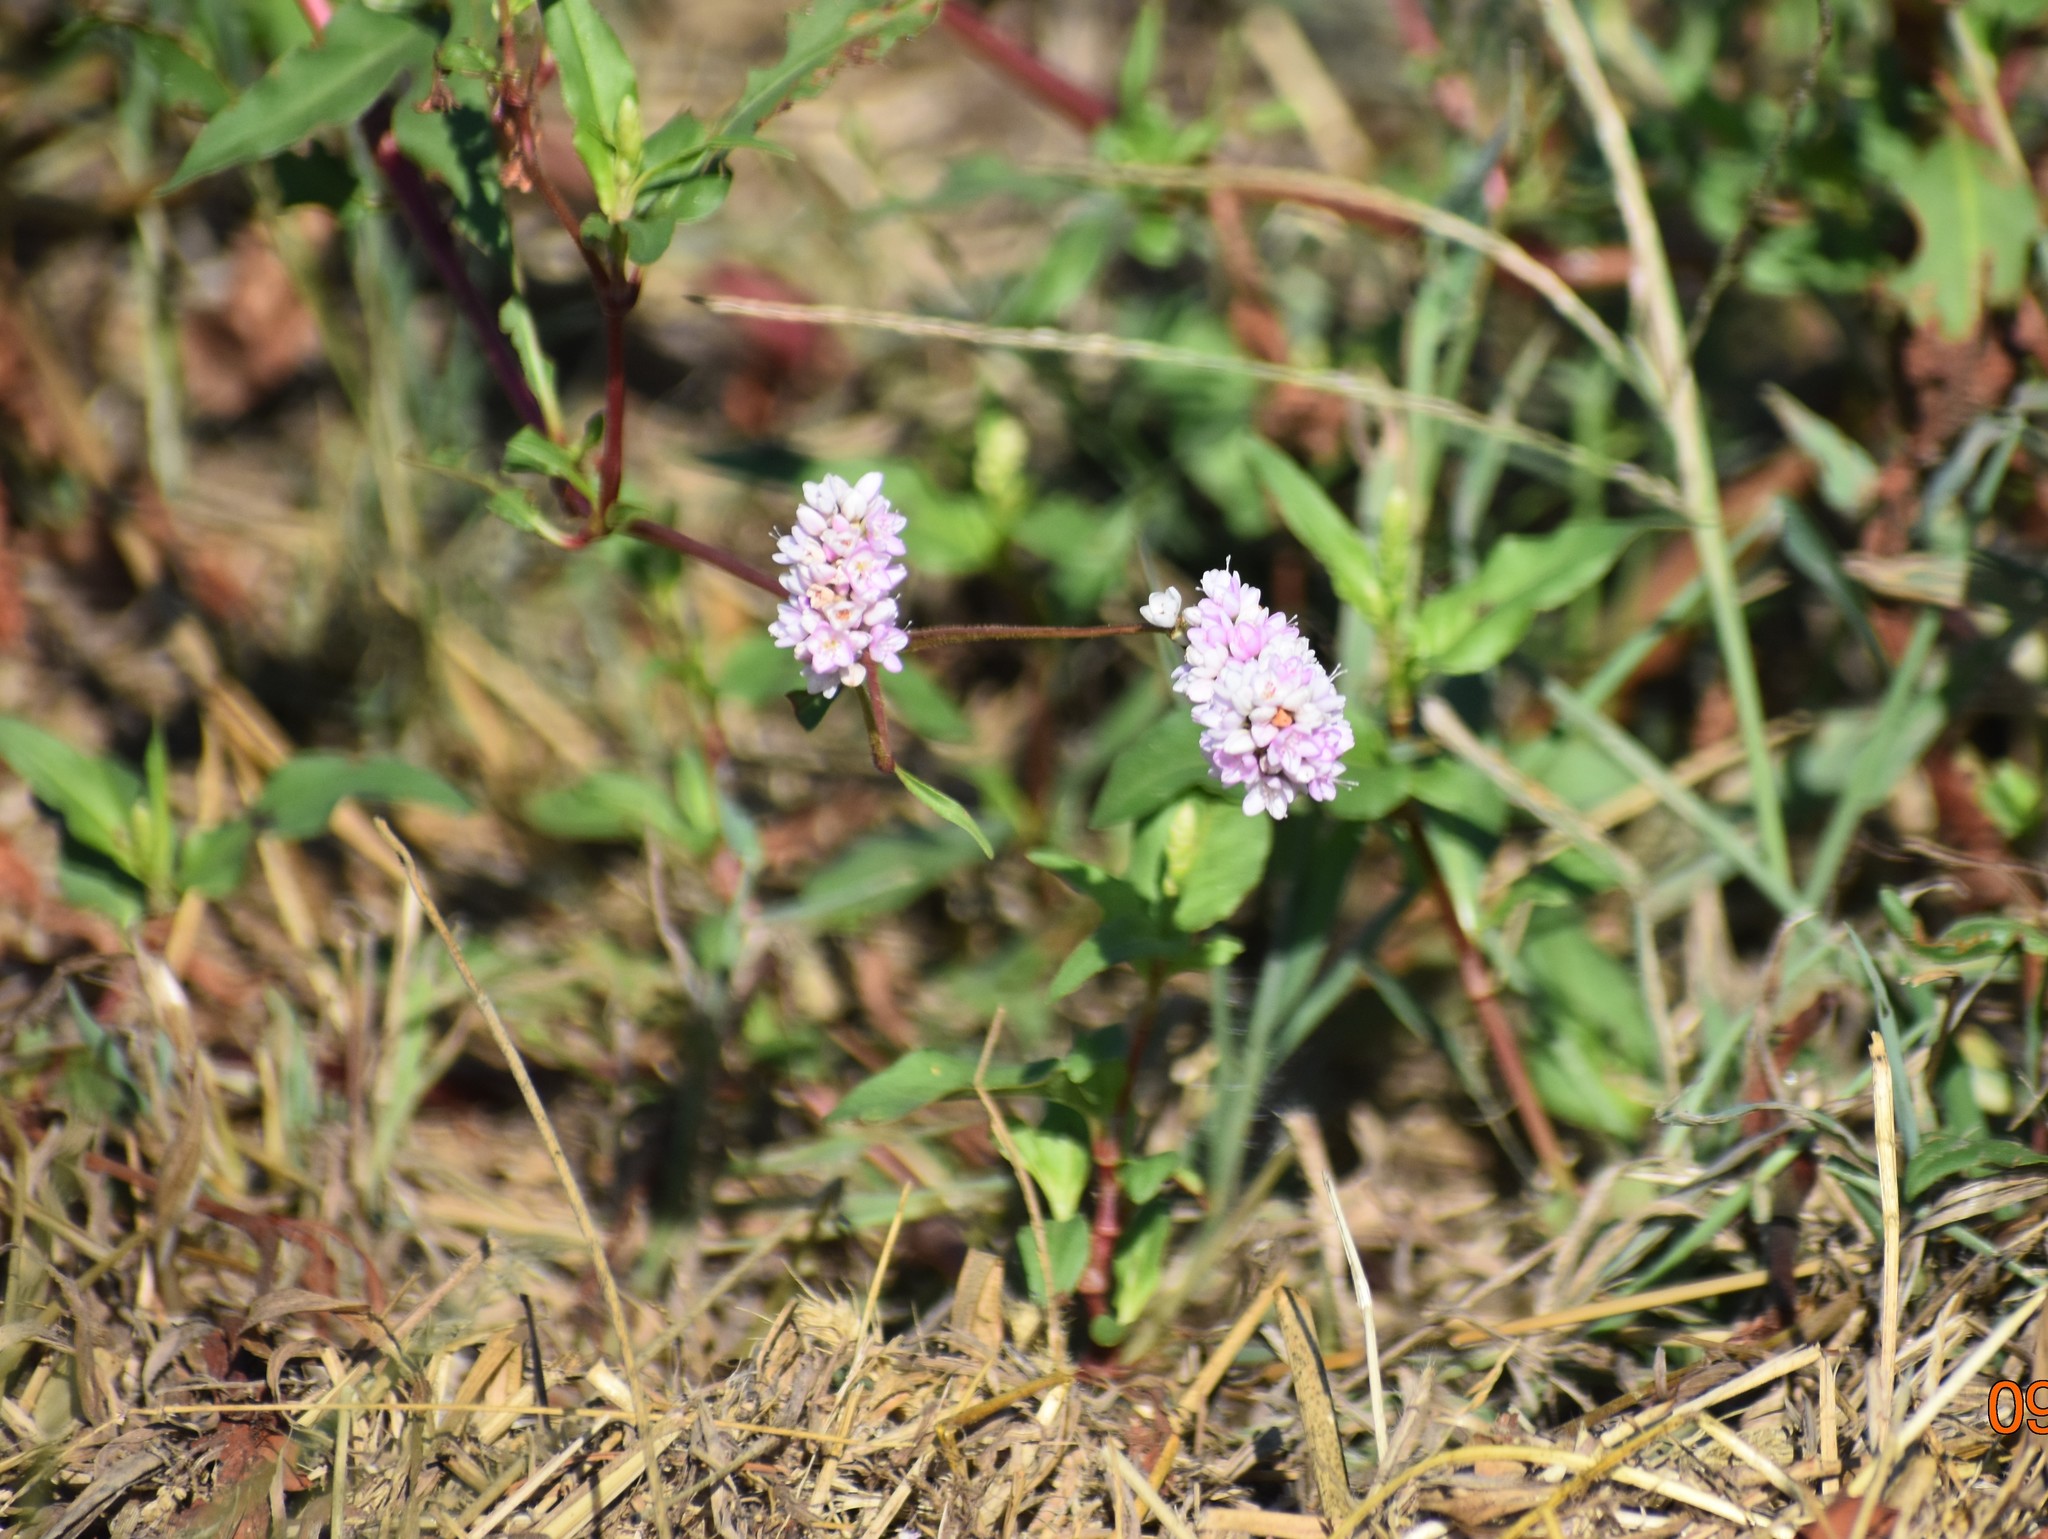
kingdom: Plantae
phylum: Tracheophyta
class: Magnoliopsida
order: Caryophyllales
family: Polygonaceae
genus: Persicaria
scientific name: Persicaria bicornis
